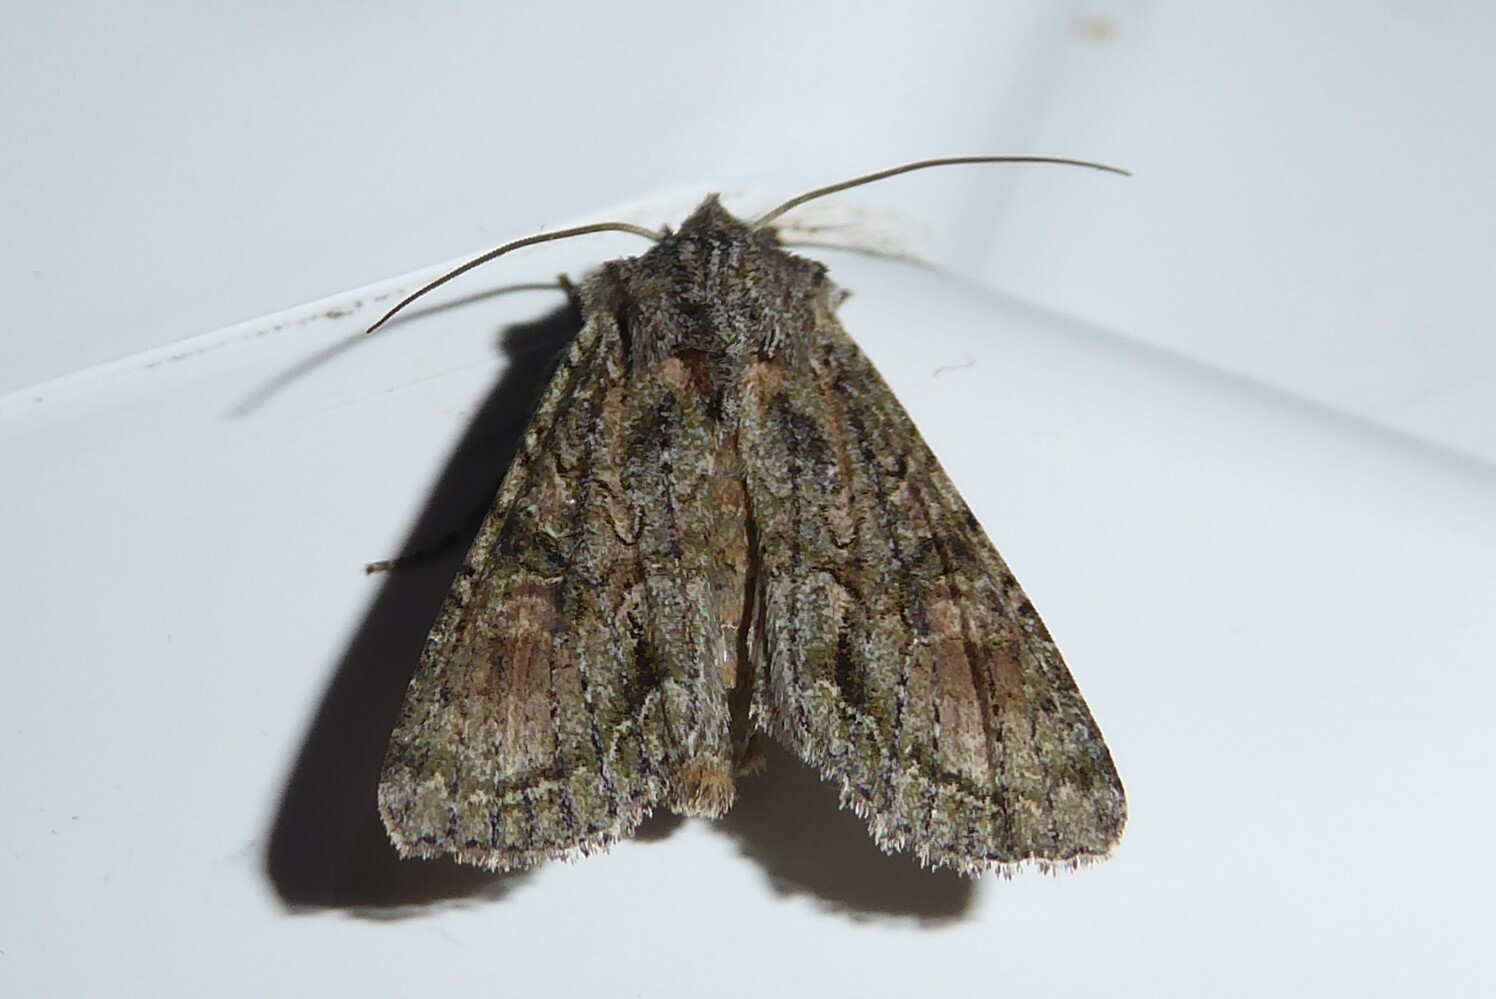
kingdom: Animalia
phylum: Arthropoda
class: Insecta
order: Lepidoptera
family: Noctuidae
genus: Ichneutica
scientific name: Ichneutica mutans
